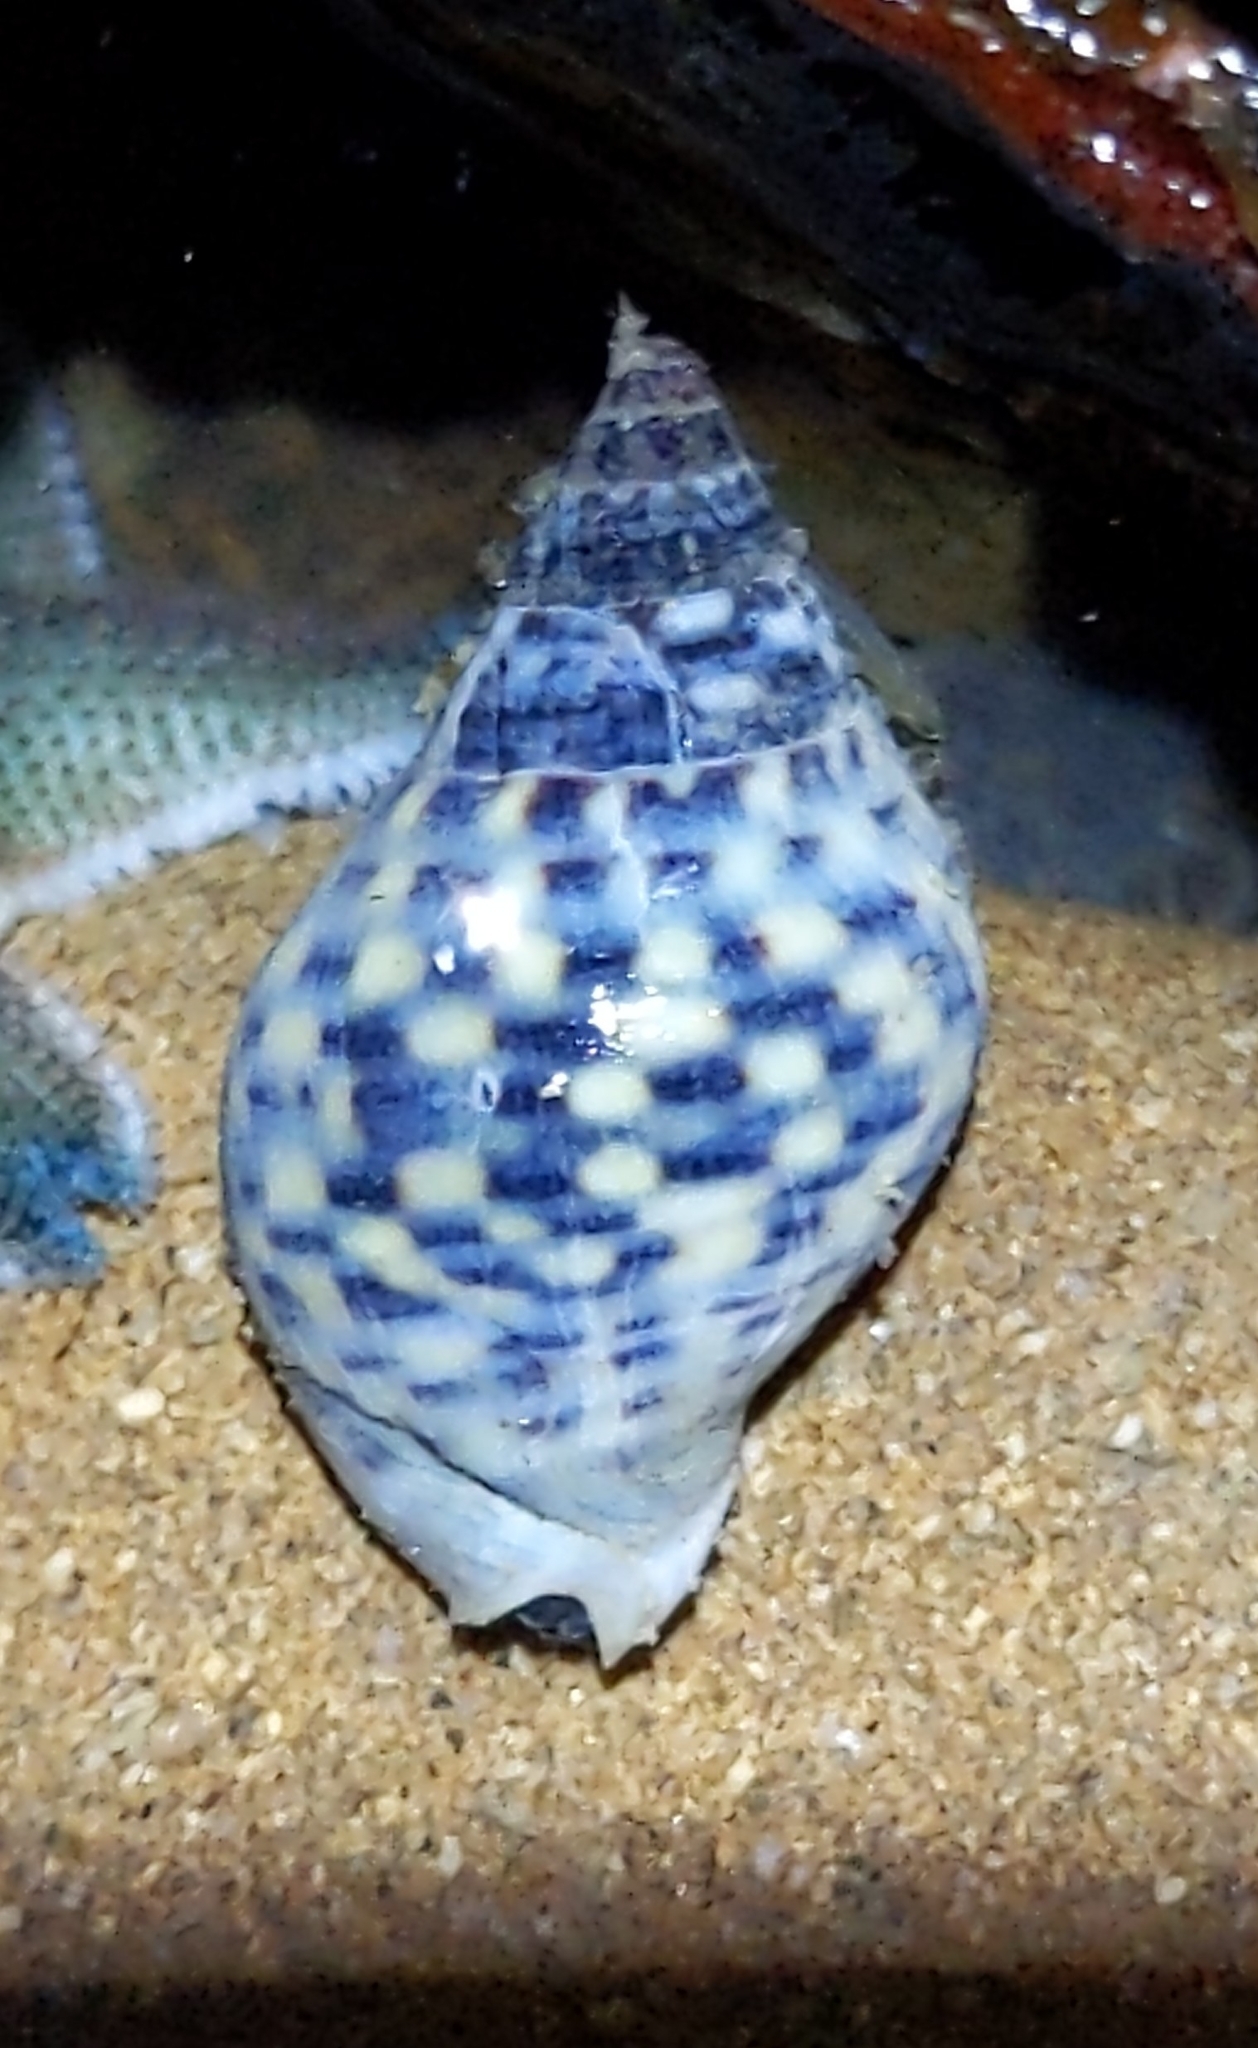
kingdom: Animalia
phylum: Mollusca
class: Gastropoda
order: Neogastropoda
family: Cominellidae
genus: Cominella
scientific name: Cominella maculosa
